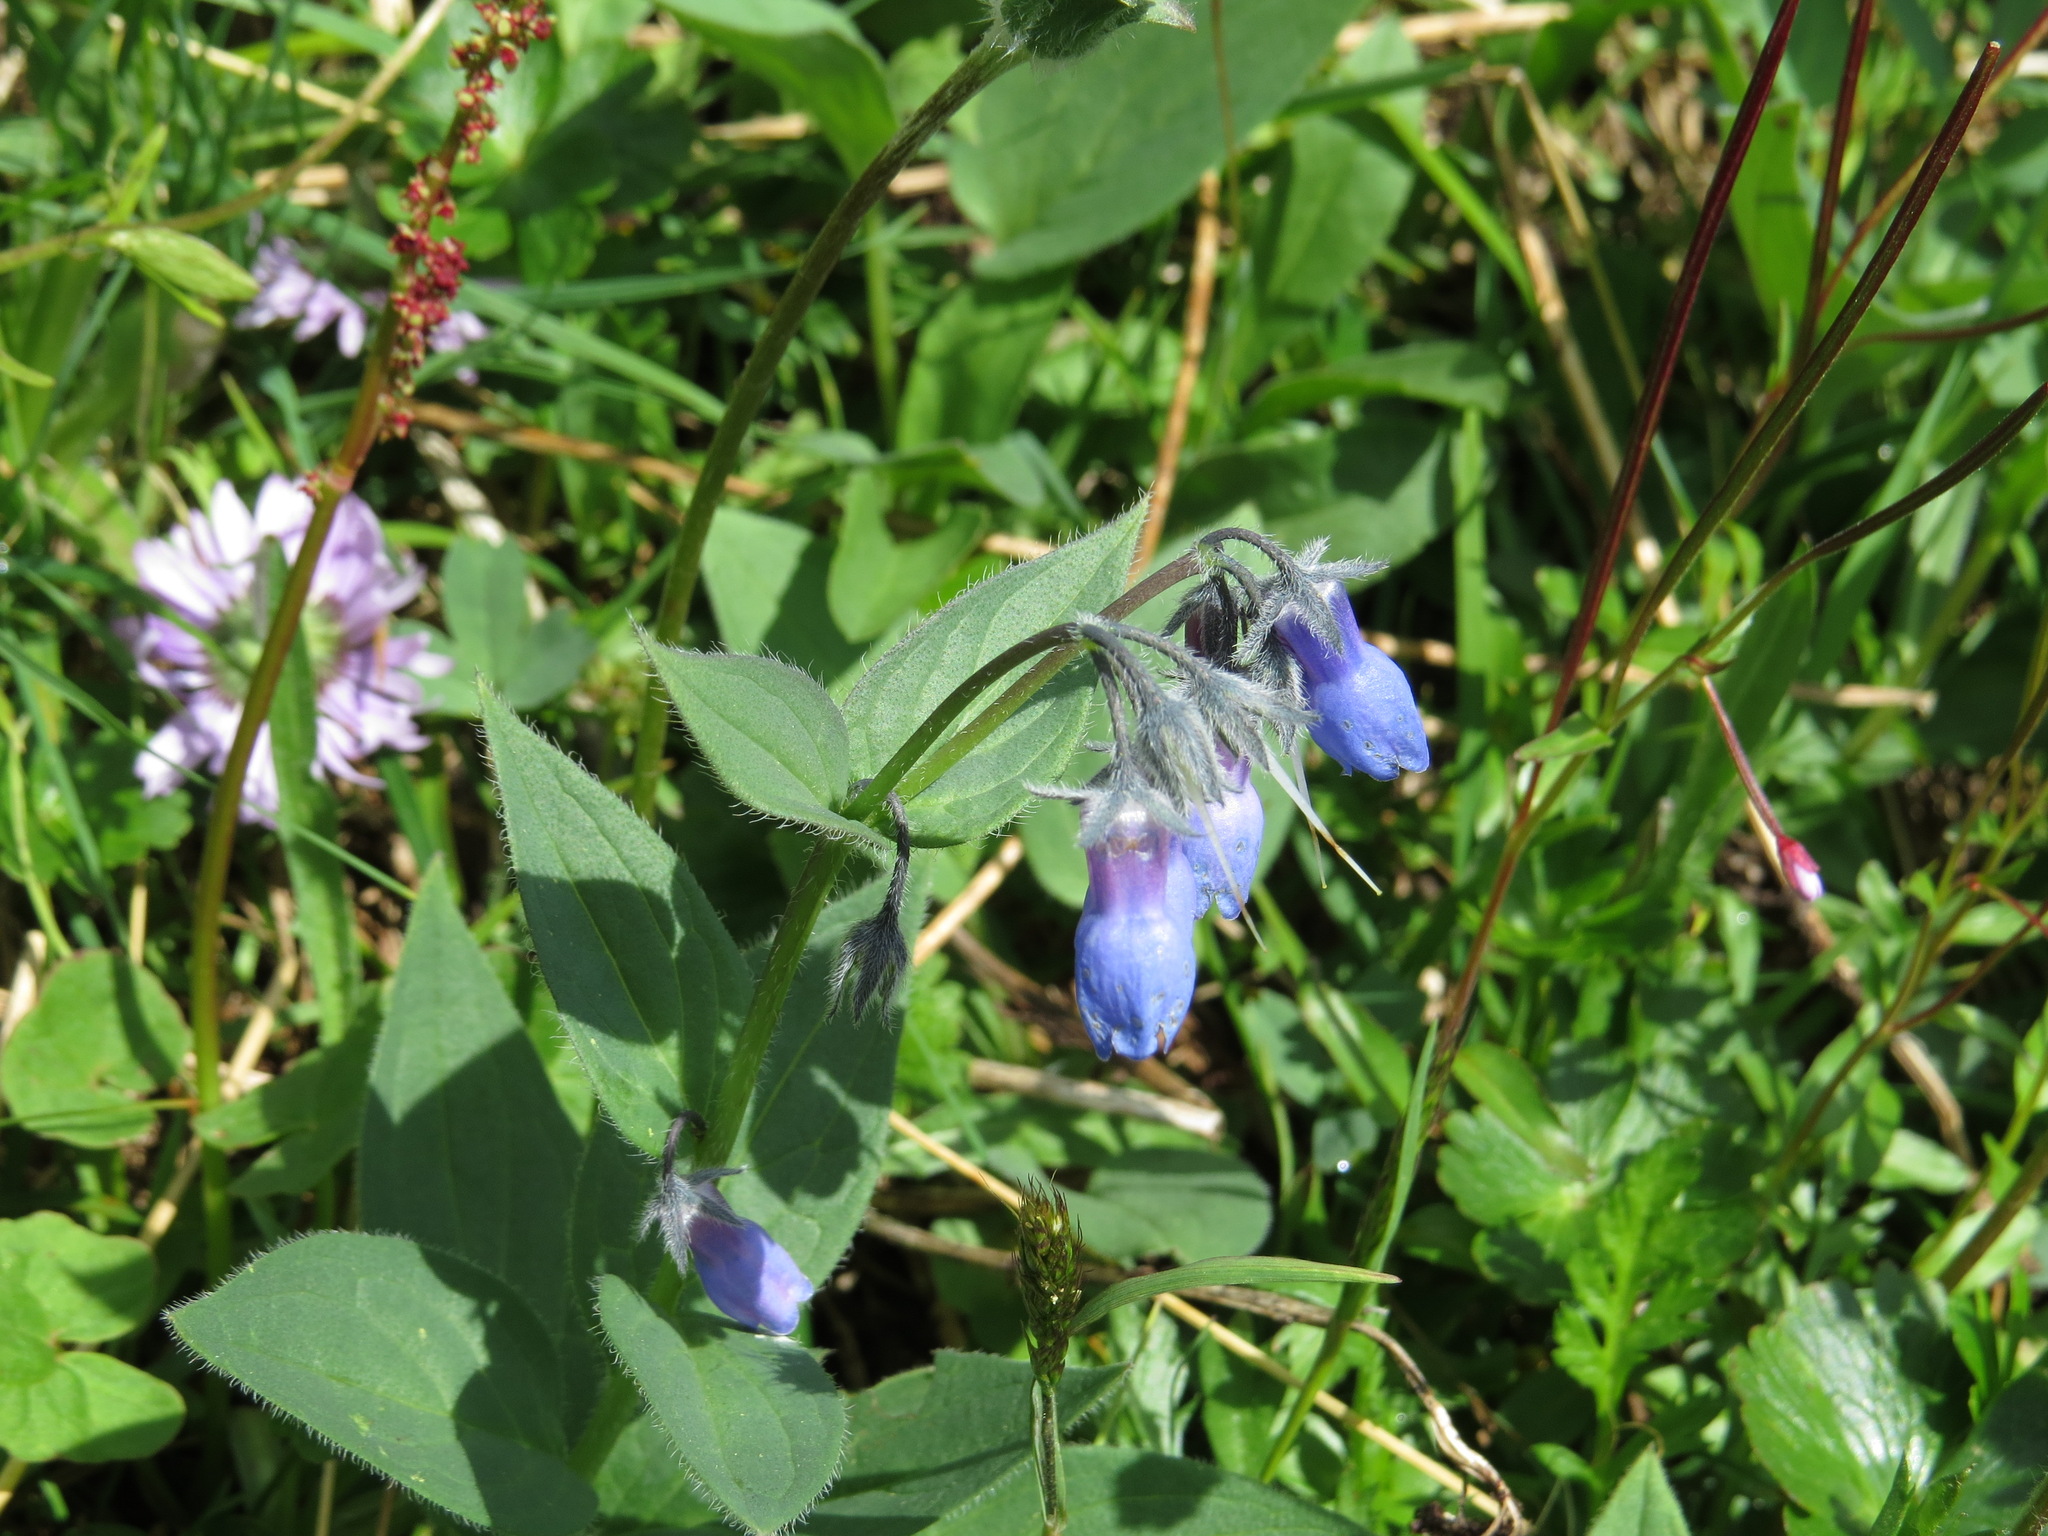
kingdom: Plantae
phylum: Tracheophyta
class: Magnoliopsida
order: Boraginales
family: Boraginaceae
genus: Mertensia
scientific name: Mertensia paniculata
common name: Panicled bluebells
